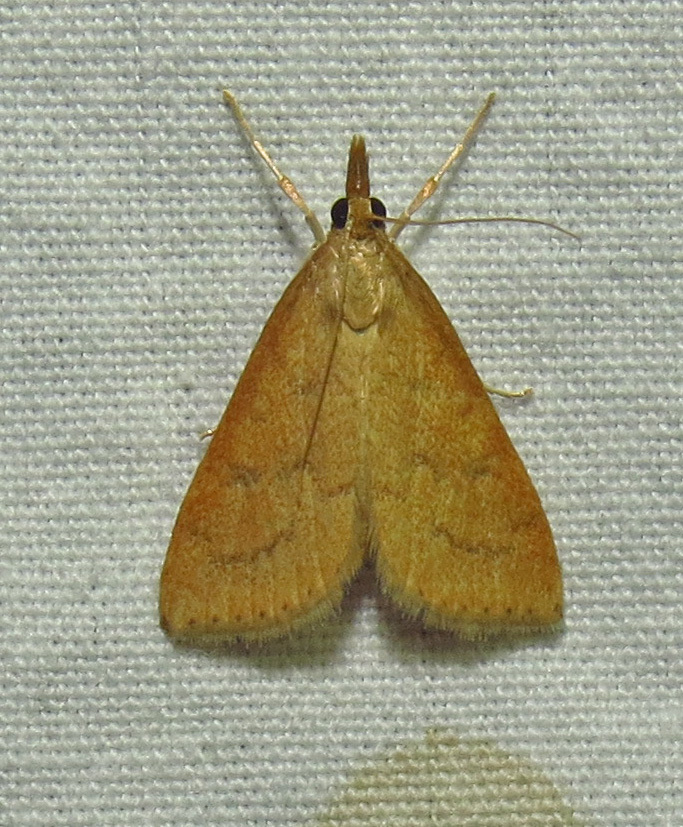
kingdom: Animalia
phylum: Arthropoda
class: Insecta
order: Lepidoptera
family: Crambidae
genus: Udea
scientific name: Udea rubigalis
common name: Celery leaftier moth
